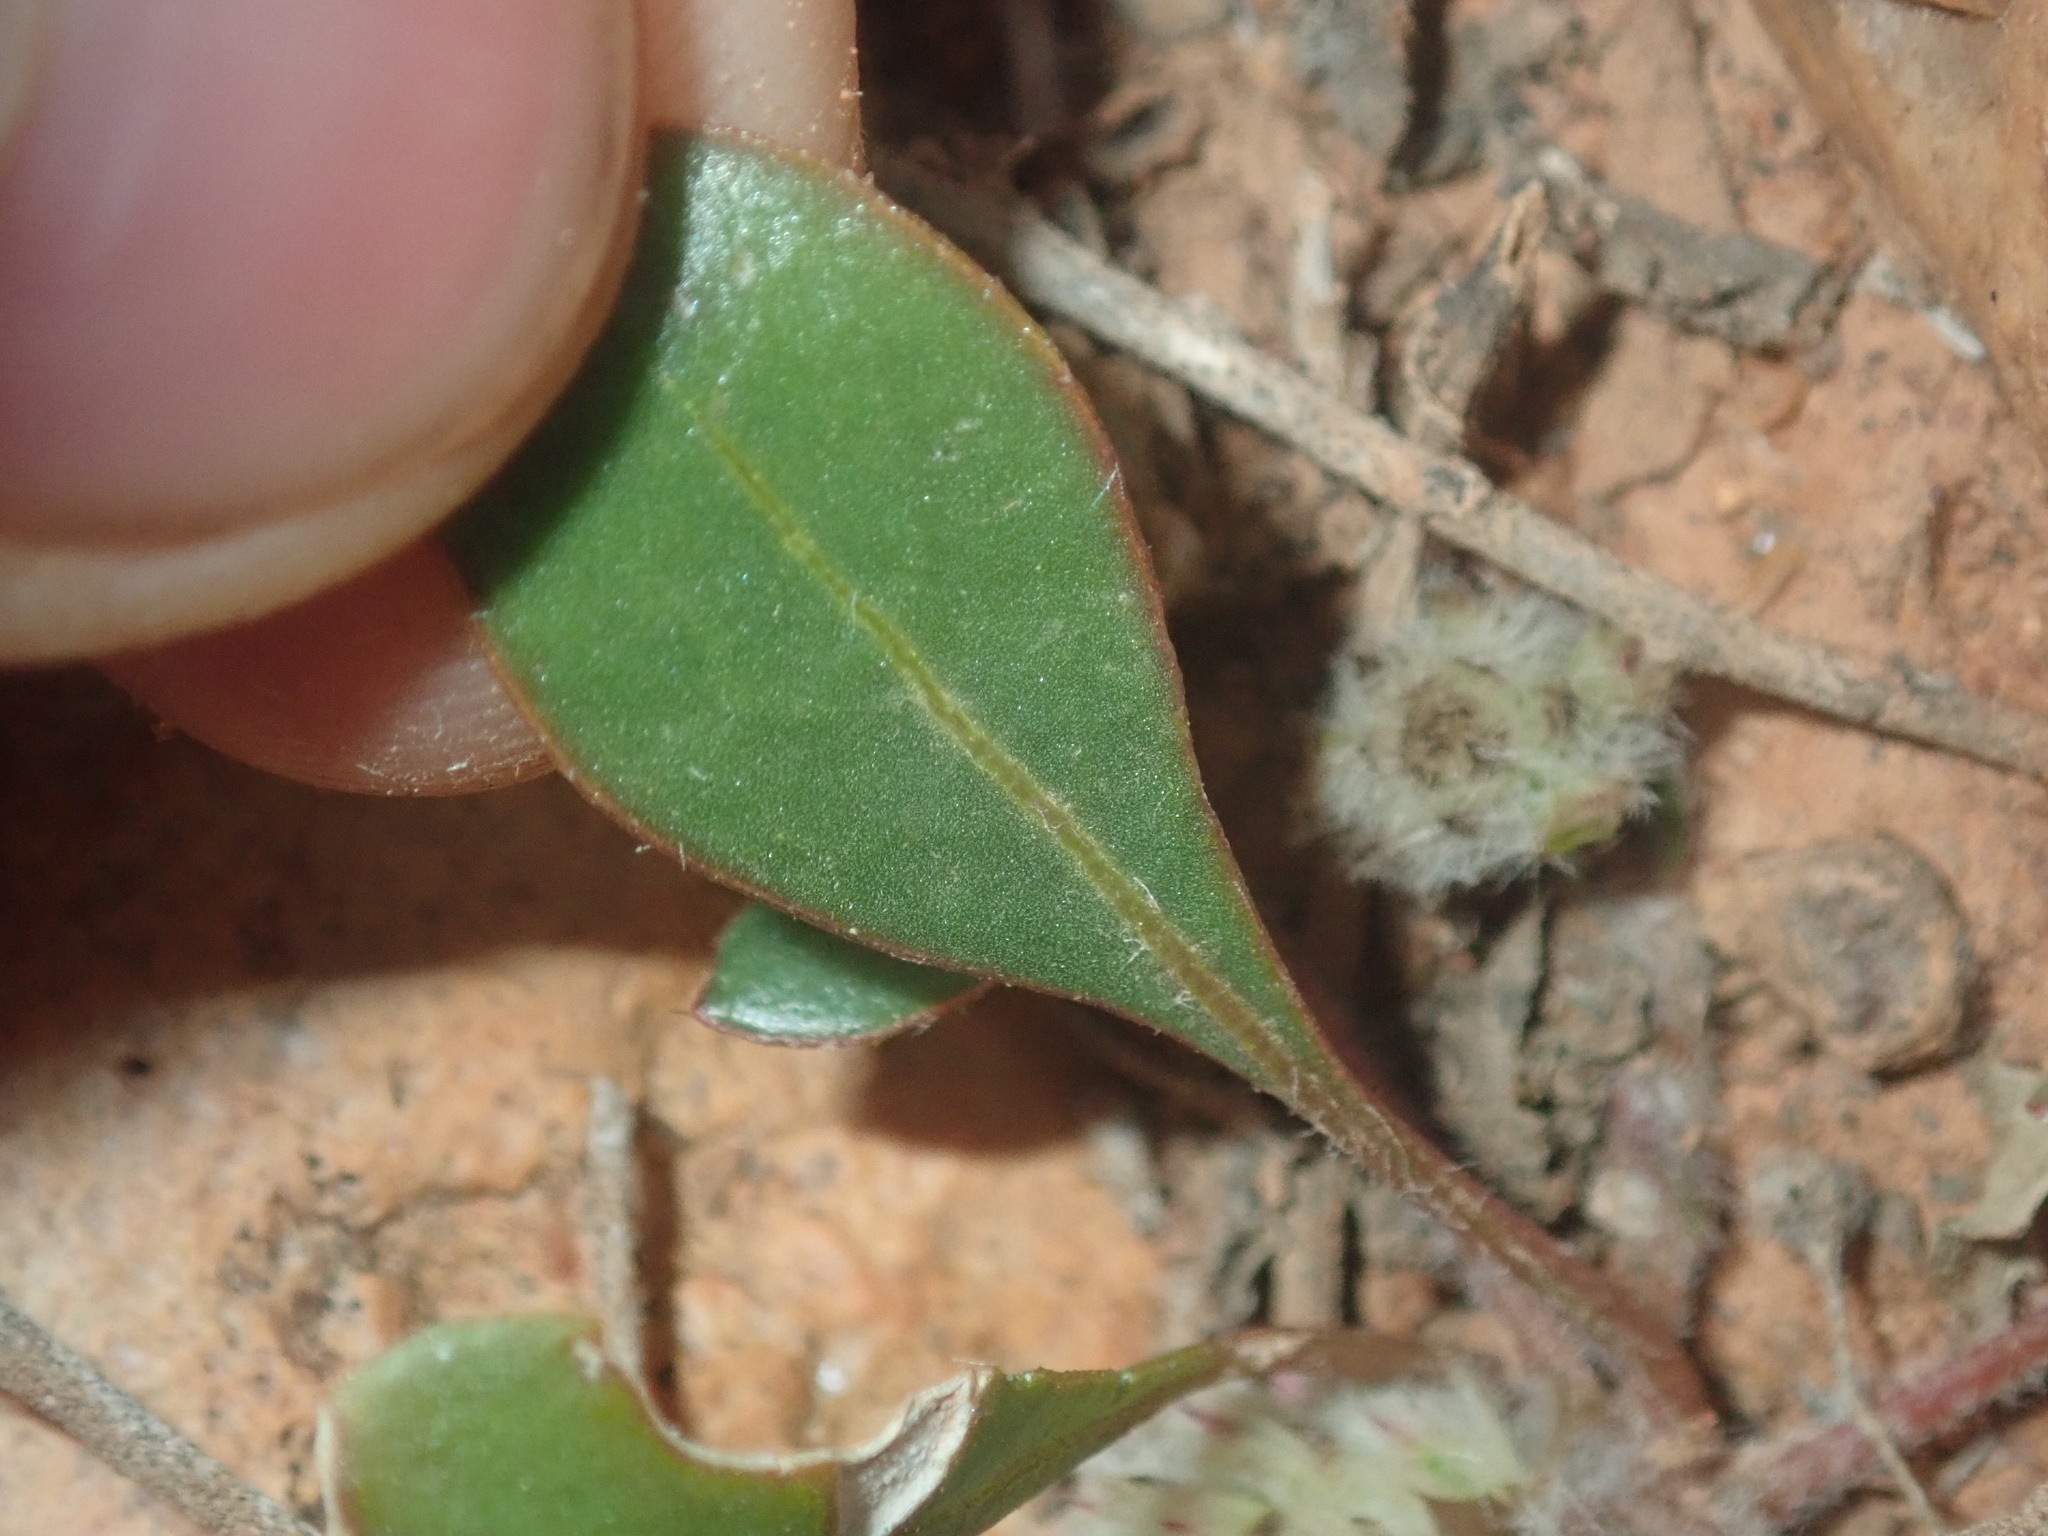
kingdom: Plantae
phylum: Tracheophyta
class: Magnoliopsida
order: Caryophyllales
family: Amaranthaceae
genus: Ptilotus
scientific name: Ptilotus aervoides
